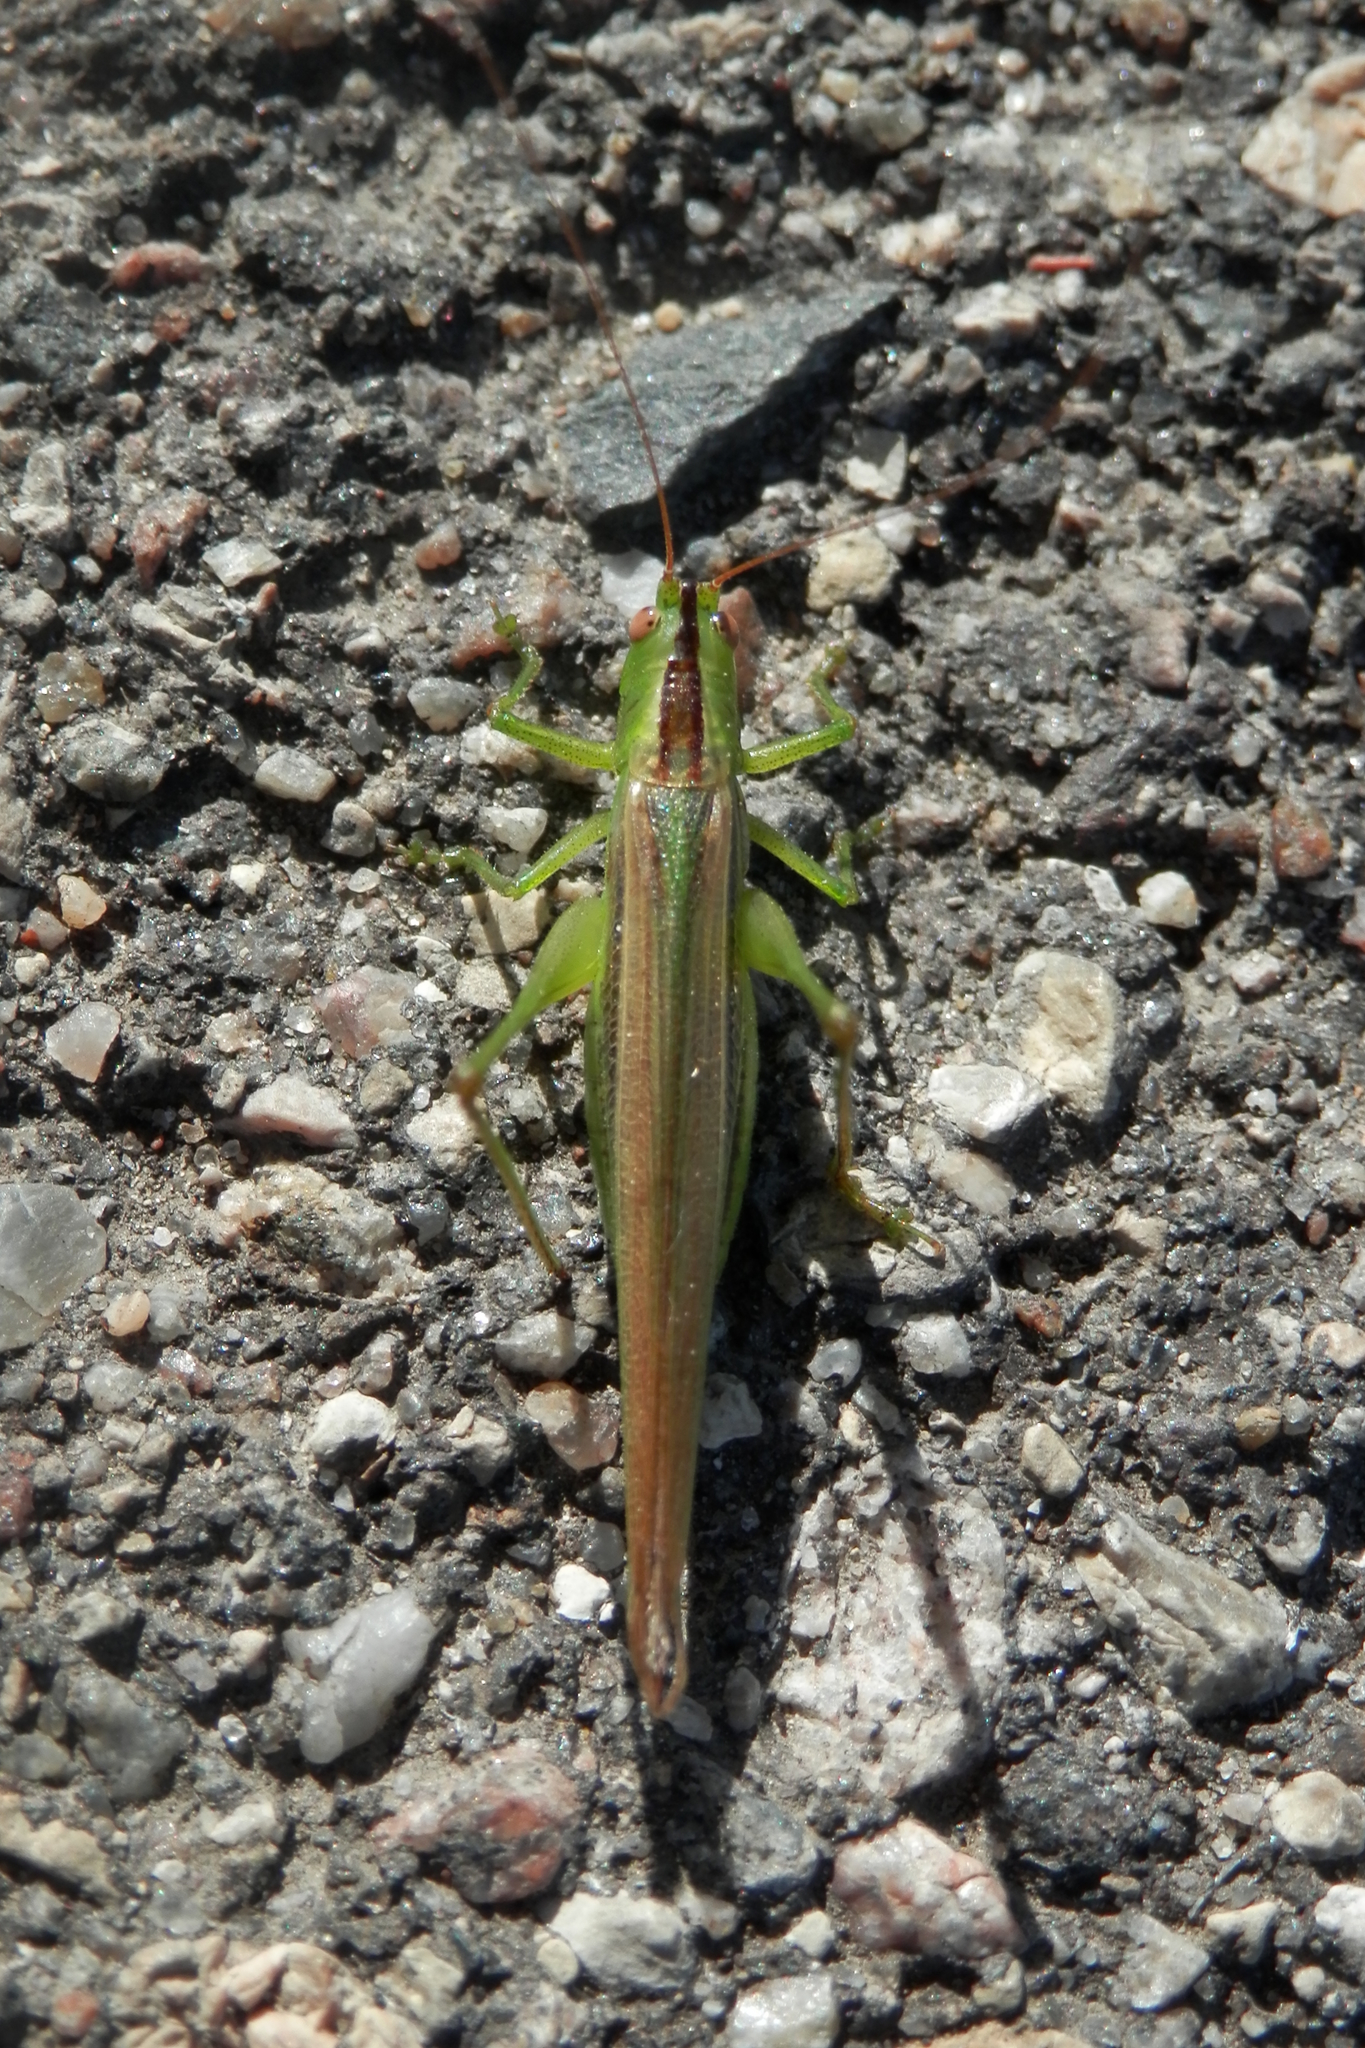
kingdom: Animalia
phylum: Arthropoda
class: Insecta
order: Orthoptera
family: Tettigoniidae
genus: Conocephalus
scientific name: Conocephalus fasciatus
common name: Slender meadow katydid
